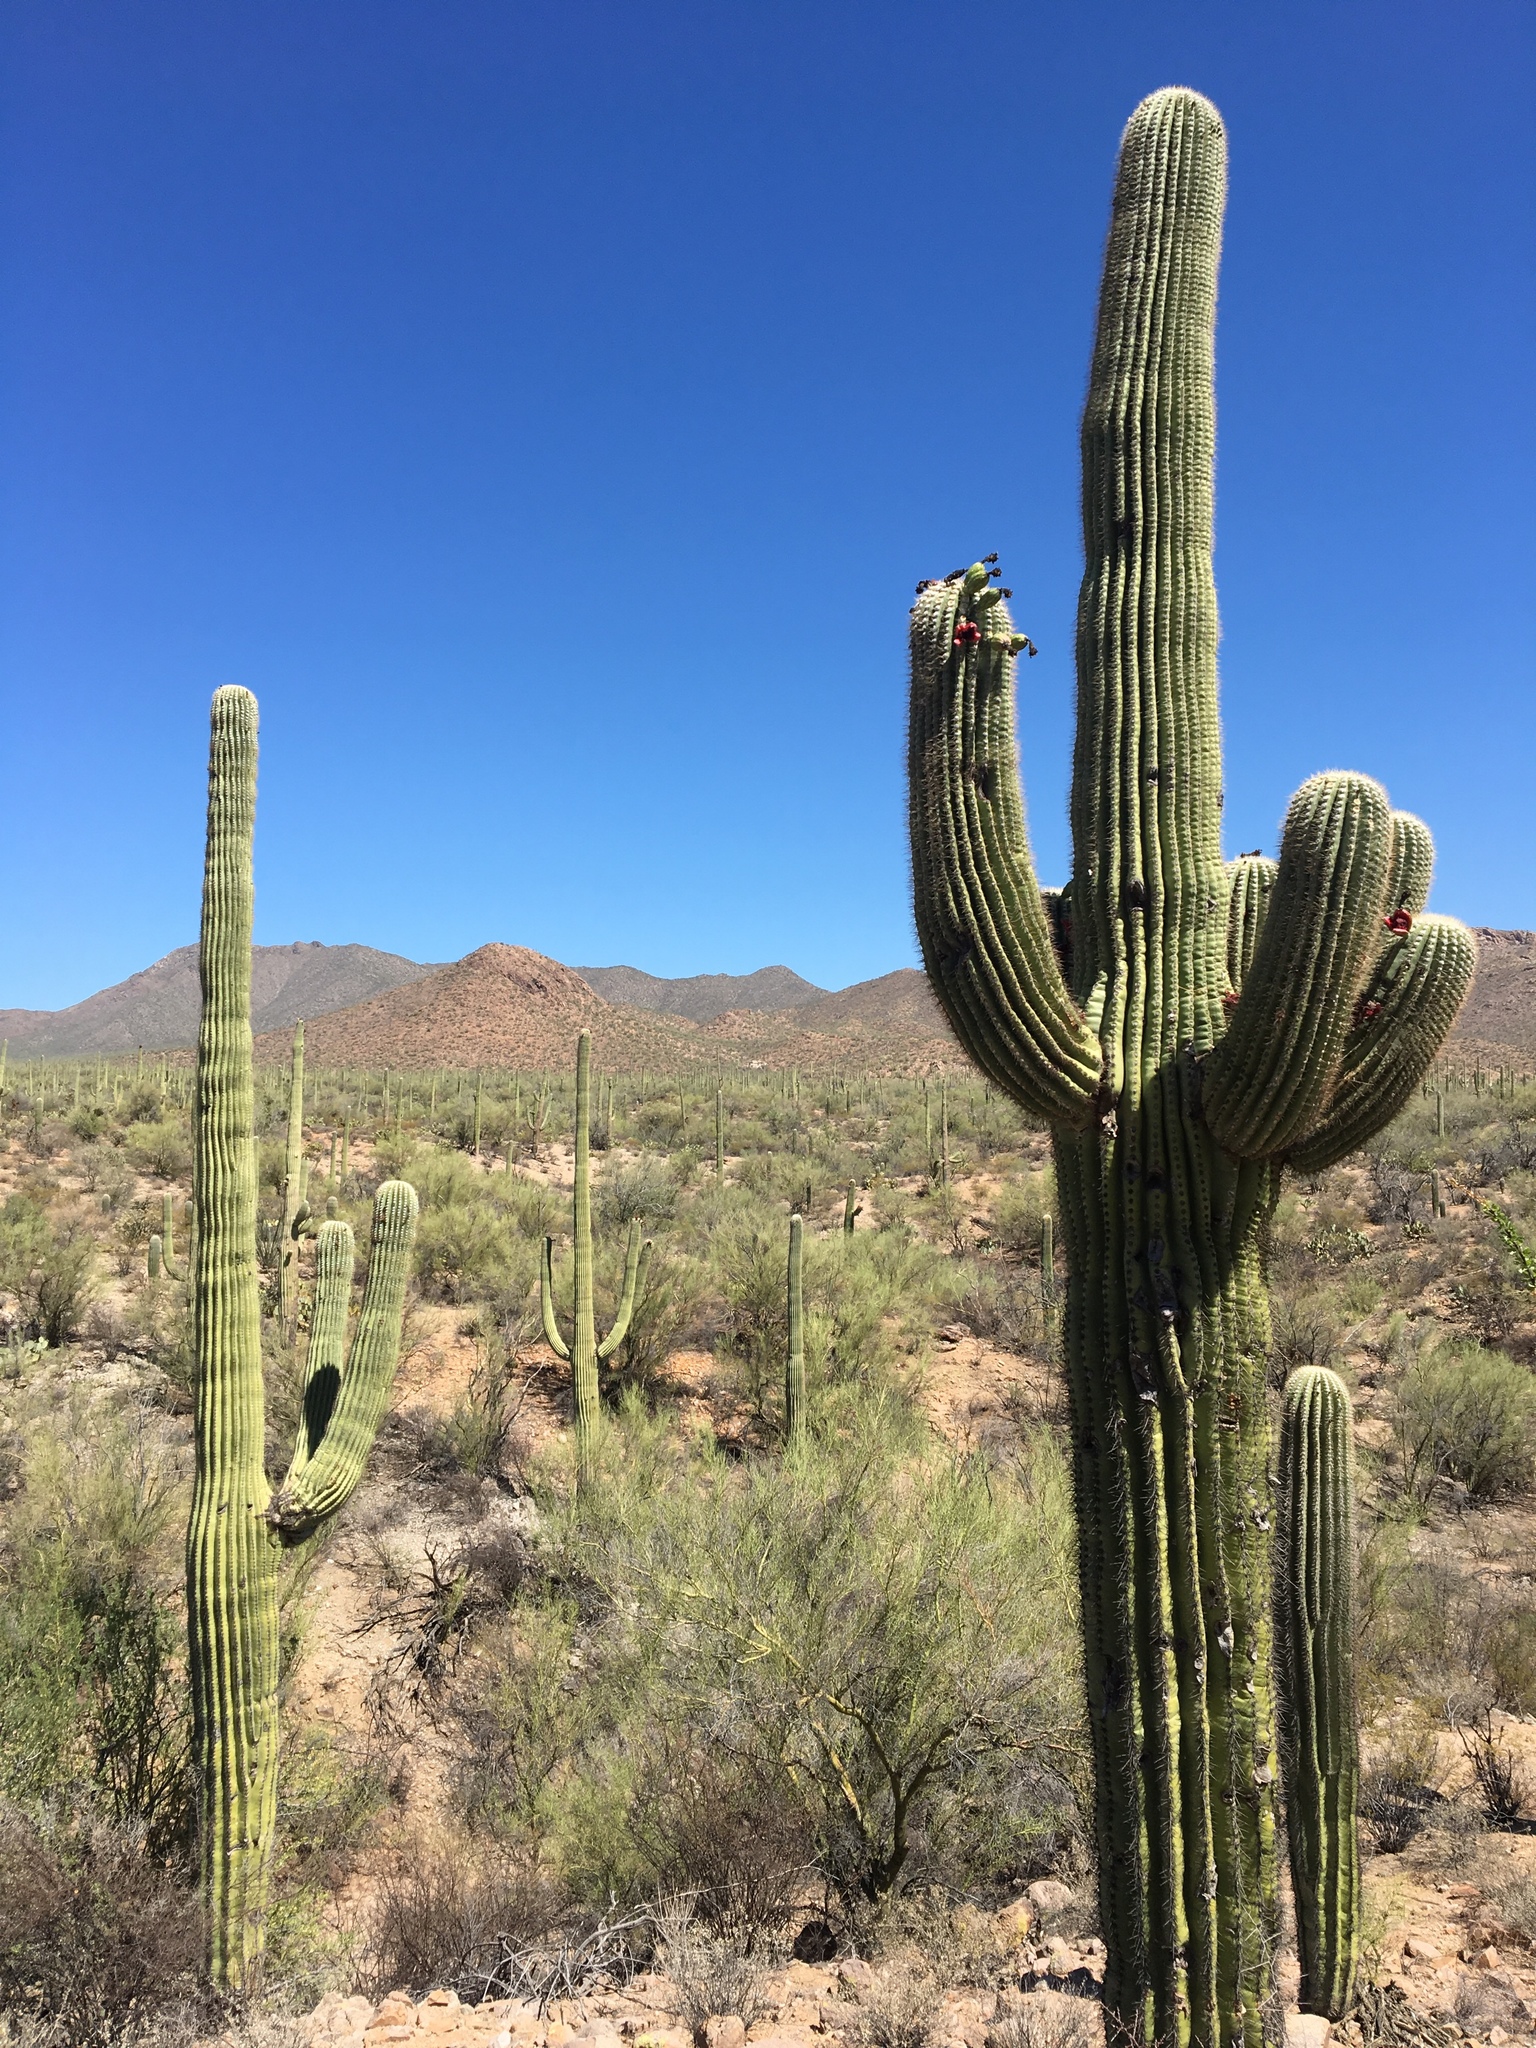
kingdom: Plantae
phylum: Tracheophyta
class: Magnoliopsida
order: Caryophyllales
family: Cactaceae
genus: Carnegiea
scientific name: Carnegiea gigantea
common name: Saguaro
